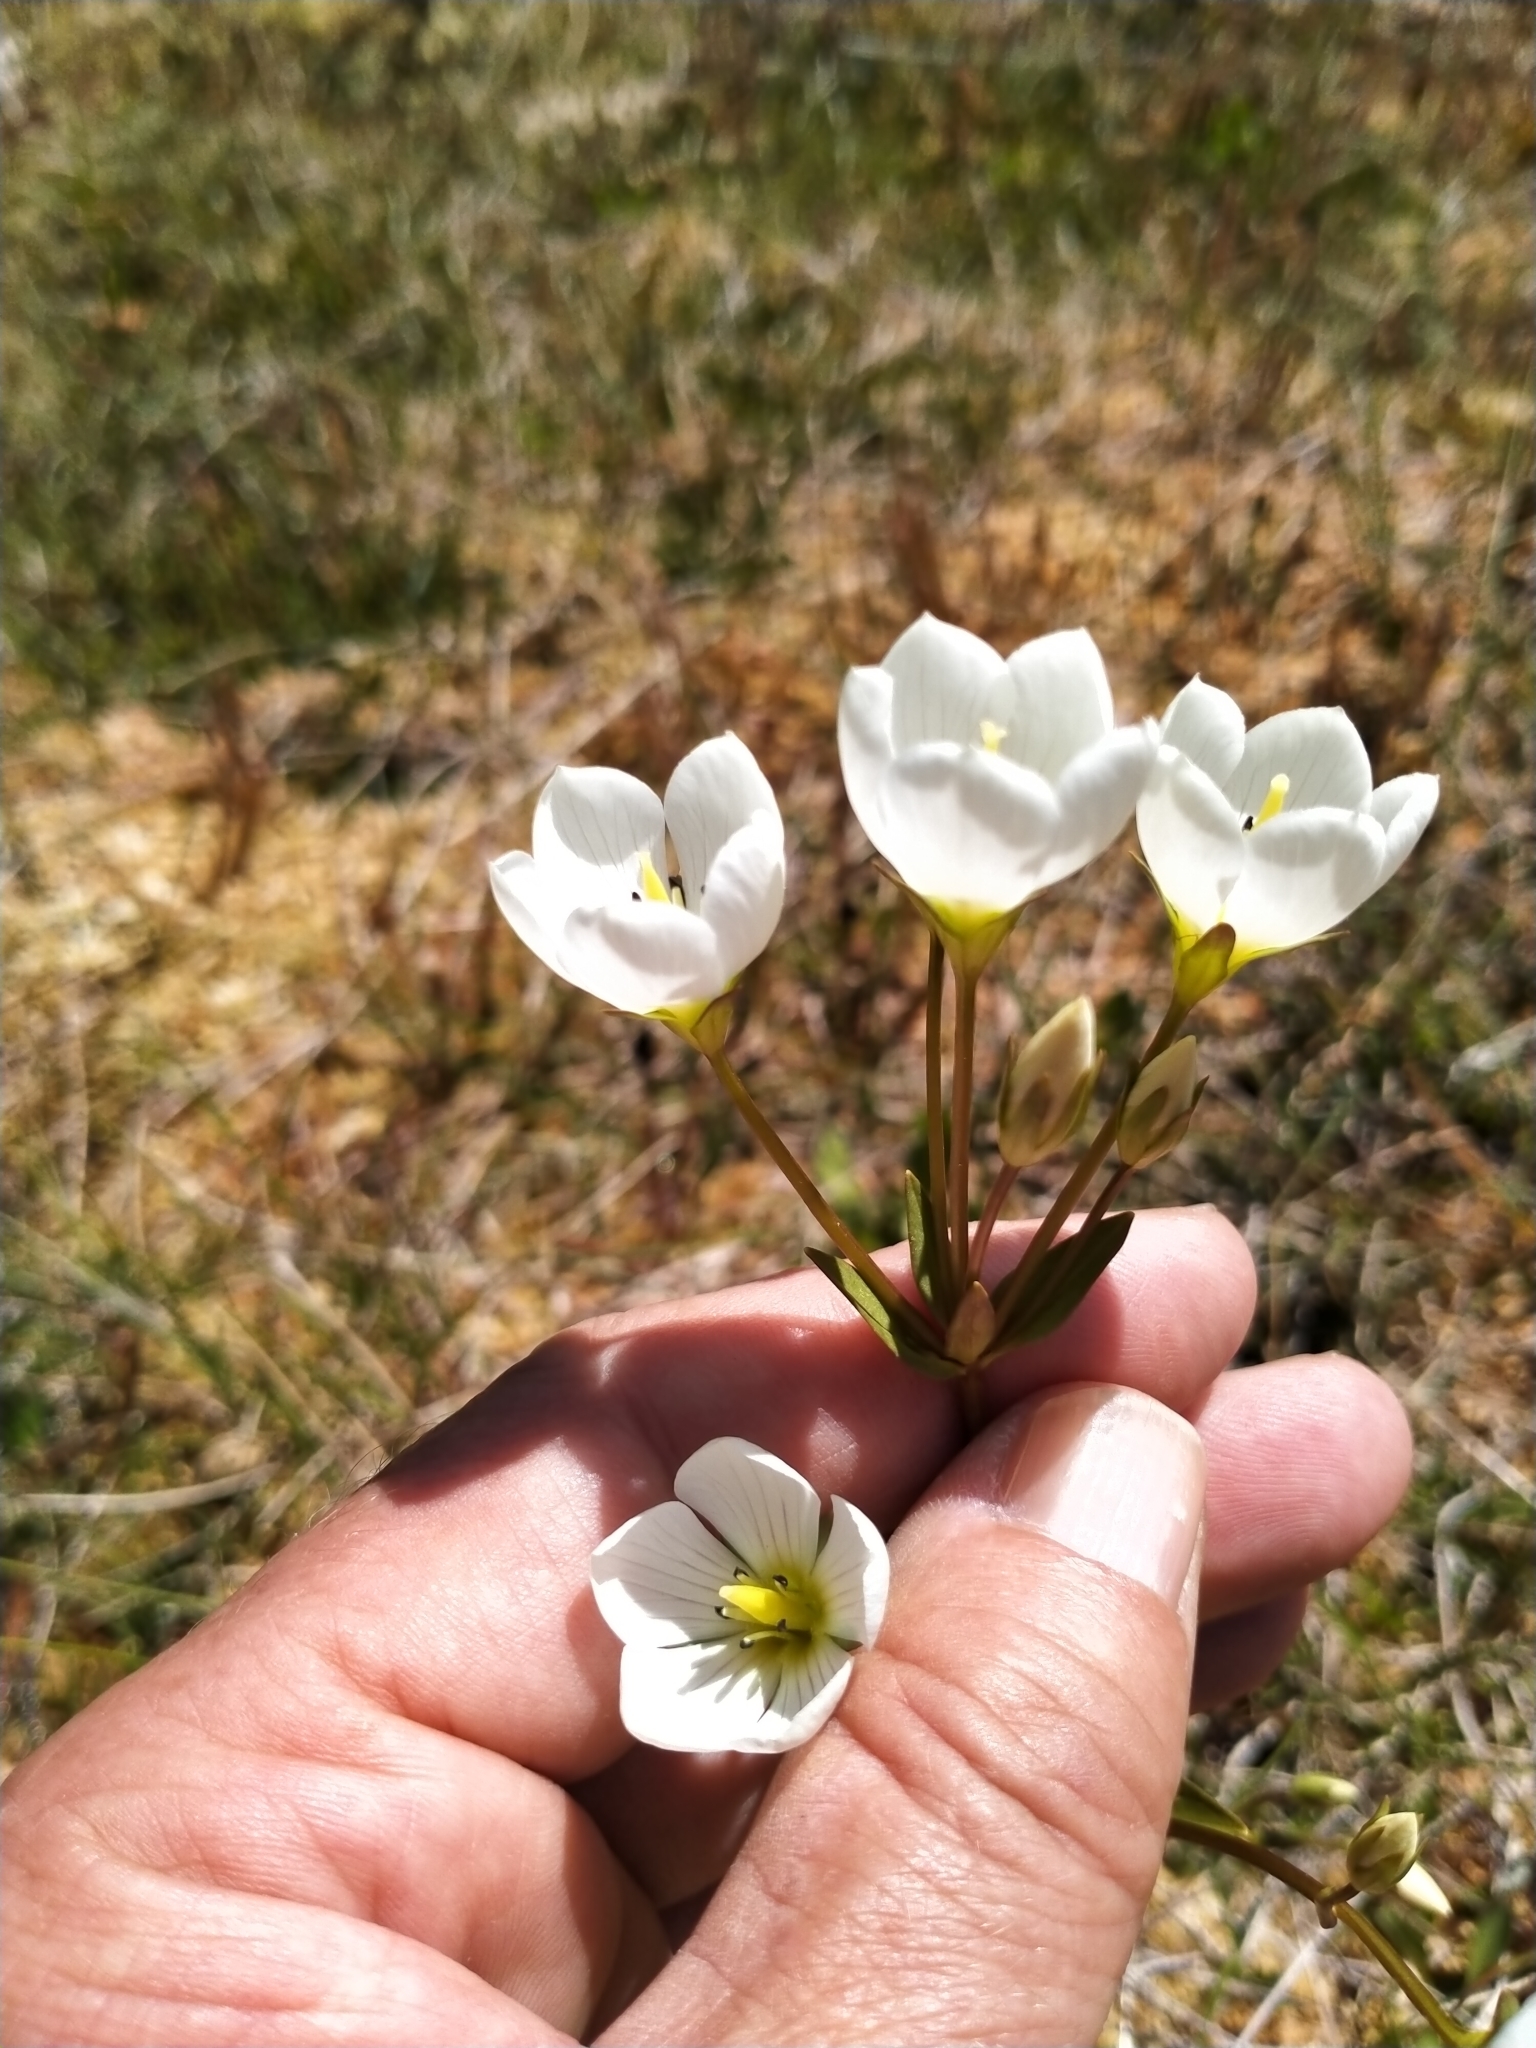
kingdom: Plantae
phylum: Tracheophyta
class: Magnoliopsida
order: Gentianales
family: Gentianaceae
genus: Gentianella
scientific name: Gentianella montana
